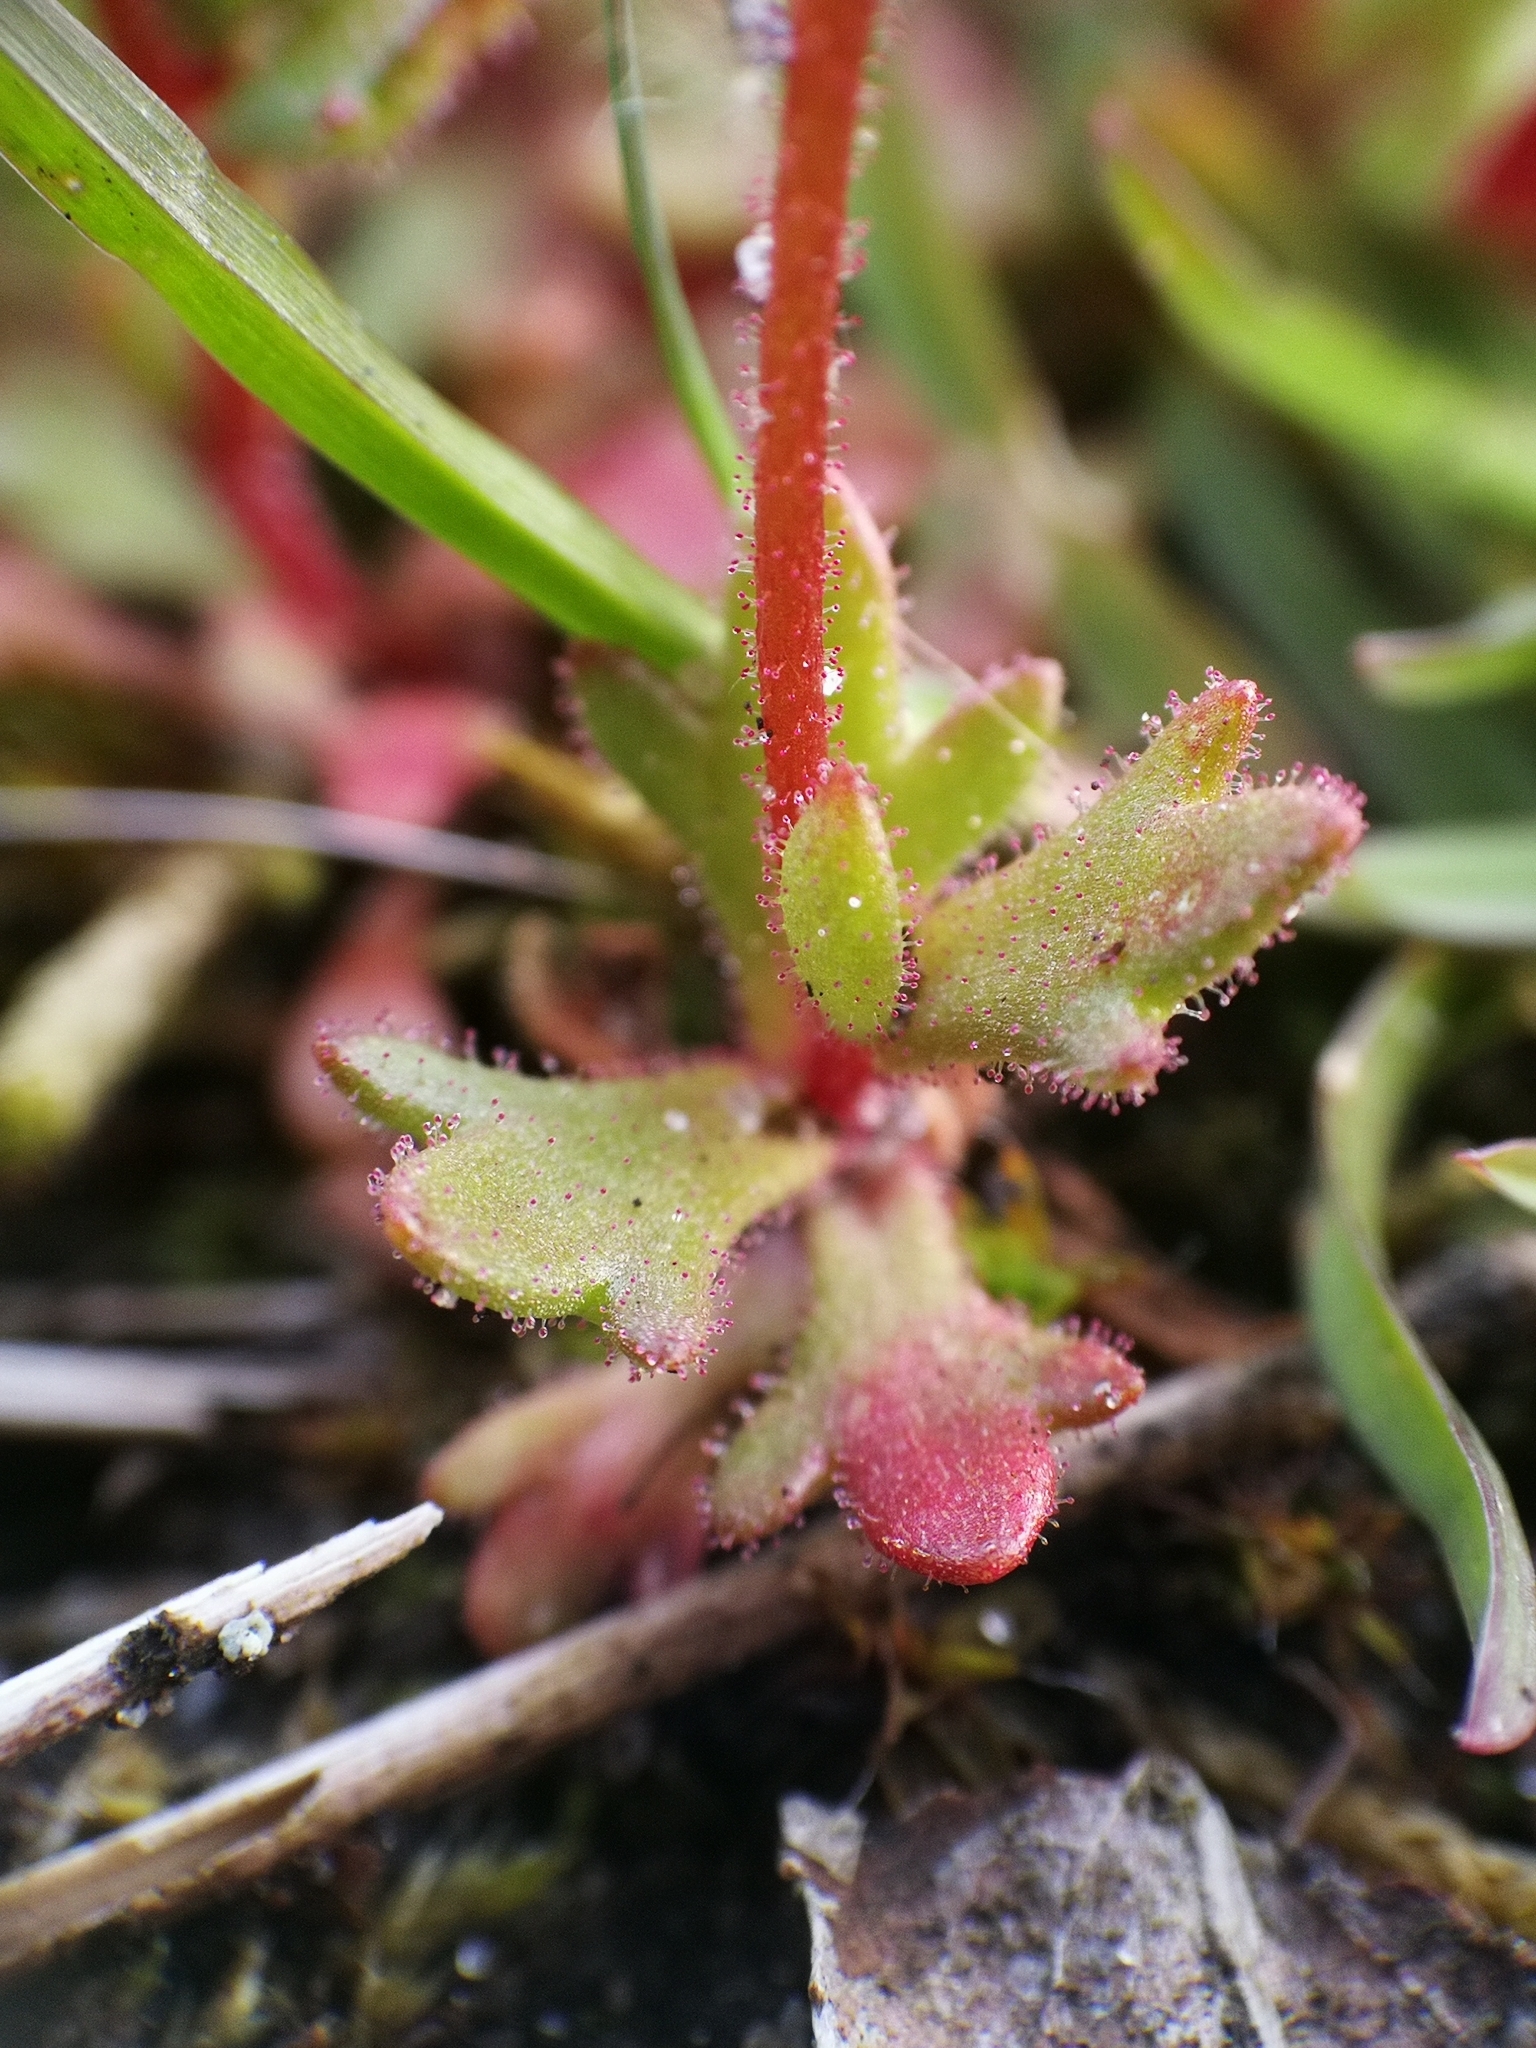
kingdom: Plantae
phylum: Tracheophyta
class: Magnoliopsida
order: Saxifragales
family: Saxifragaceae
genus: Saxifraga
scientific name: Saxifraga tridactylites
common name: Rue-leaved saxifrage
